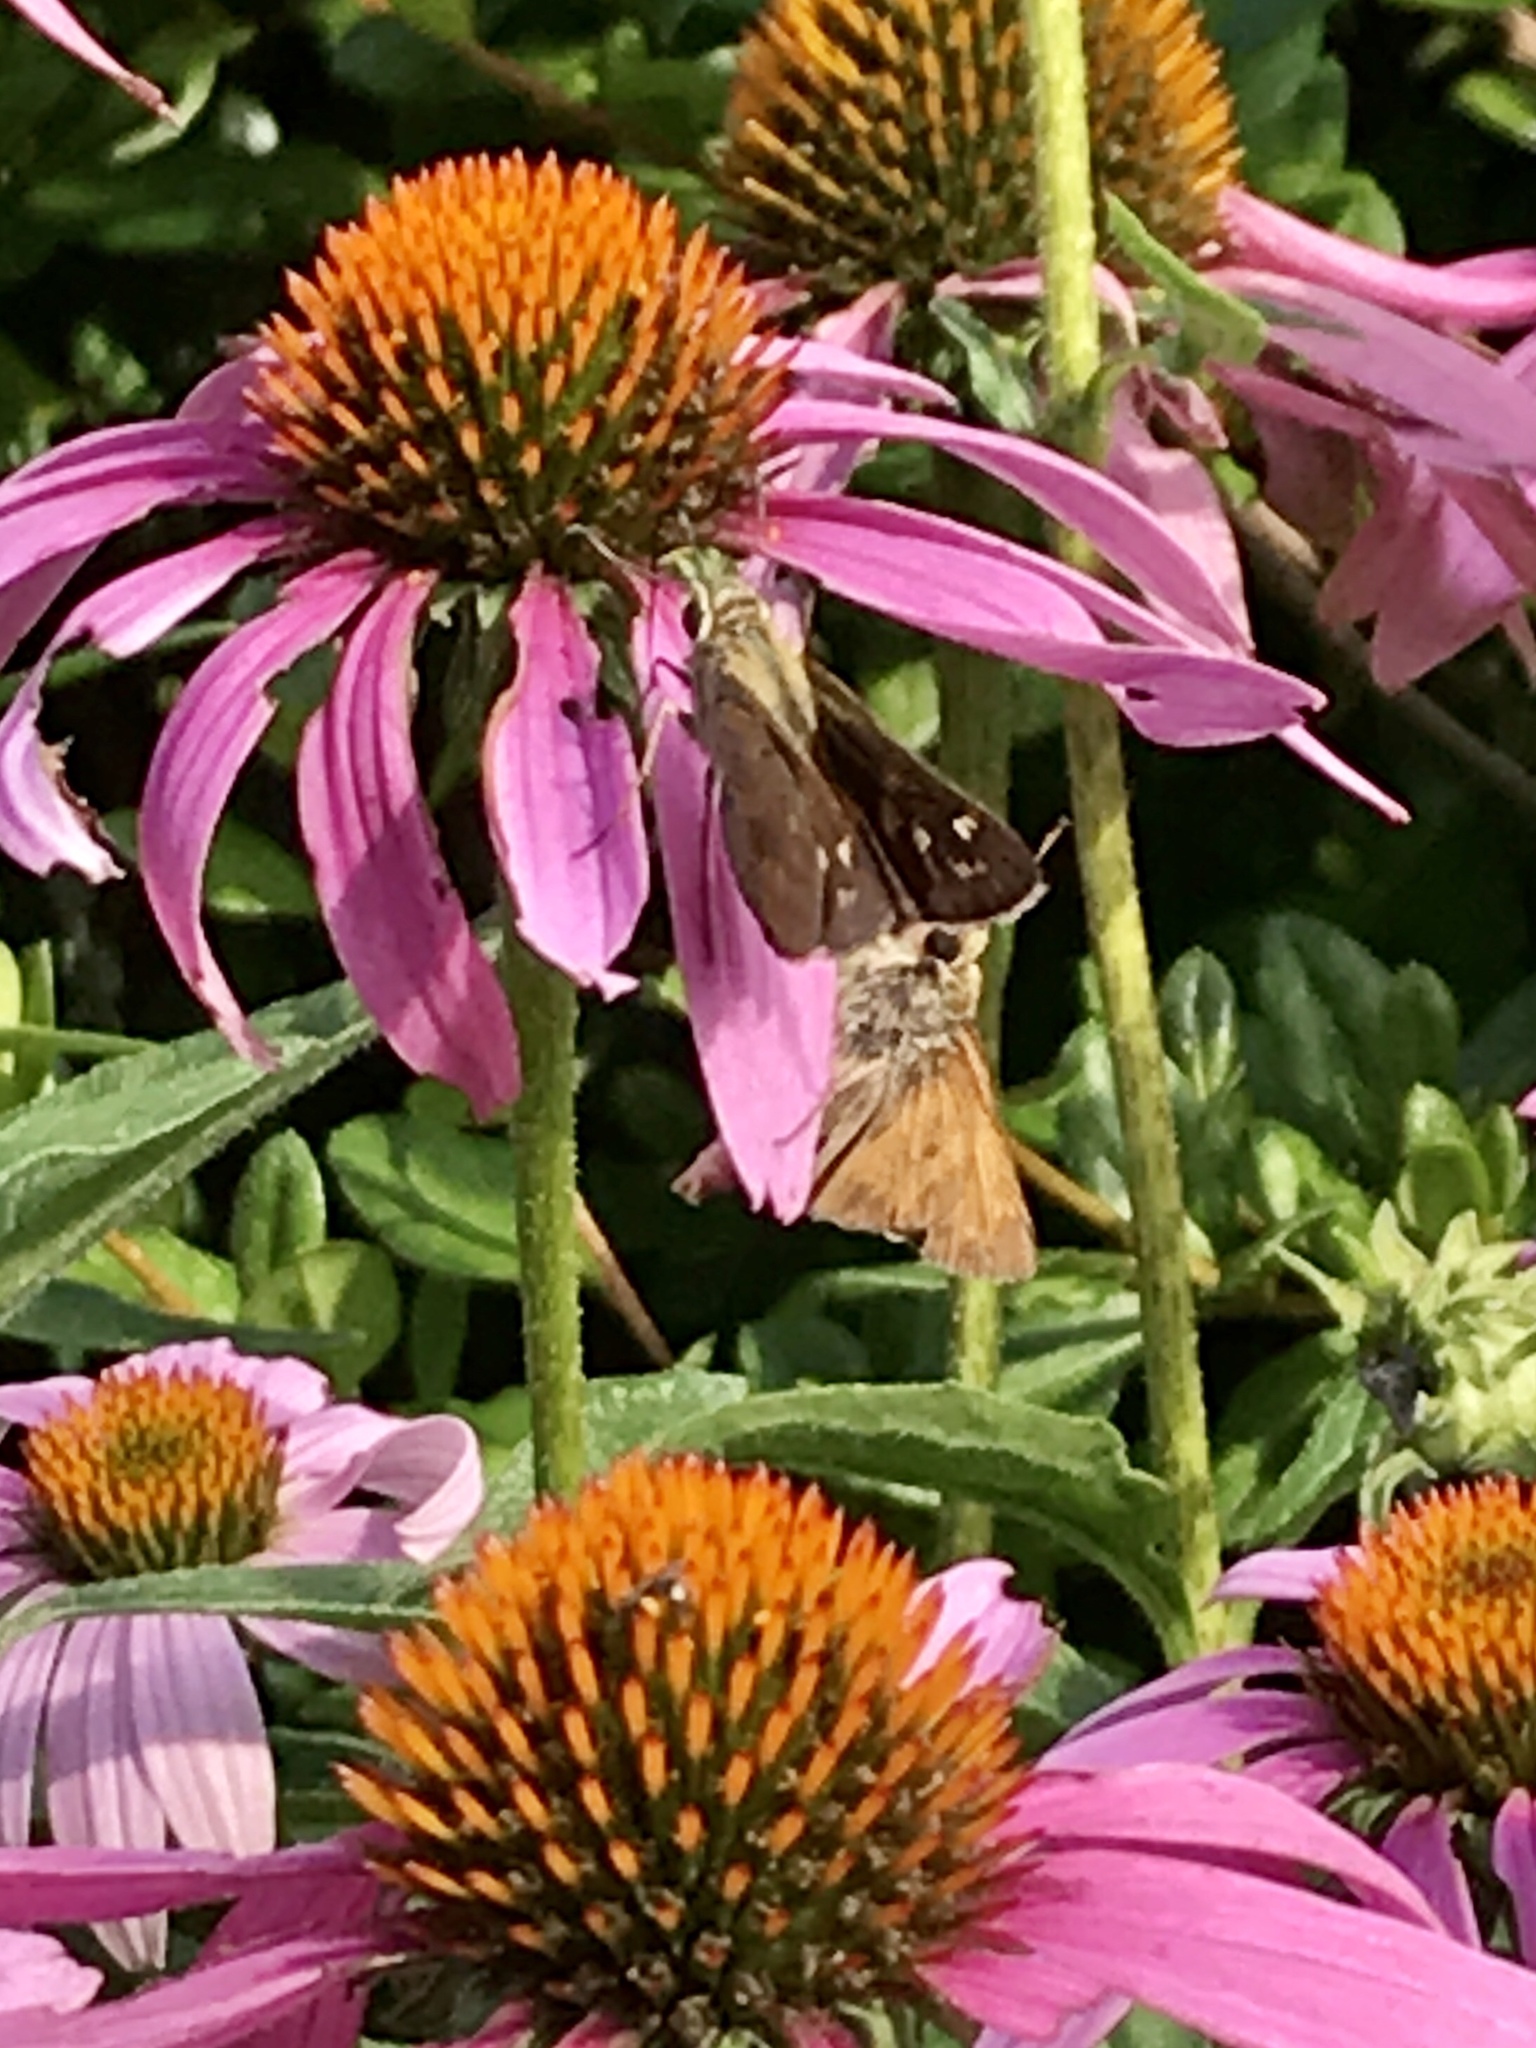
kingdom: Animalia
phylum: Arthropoda
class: Insecta
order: Lepidoptera
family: Hesperiidae
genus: Atalopedes
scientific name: Atalopedes
